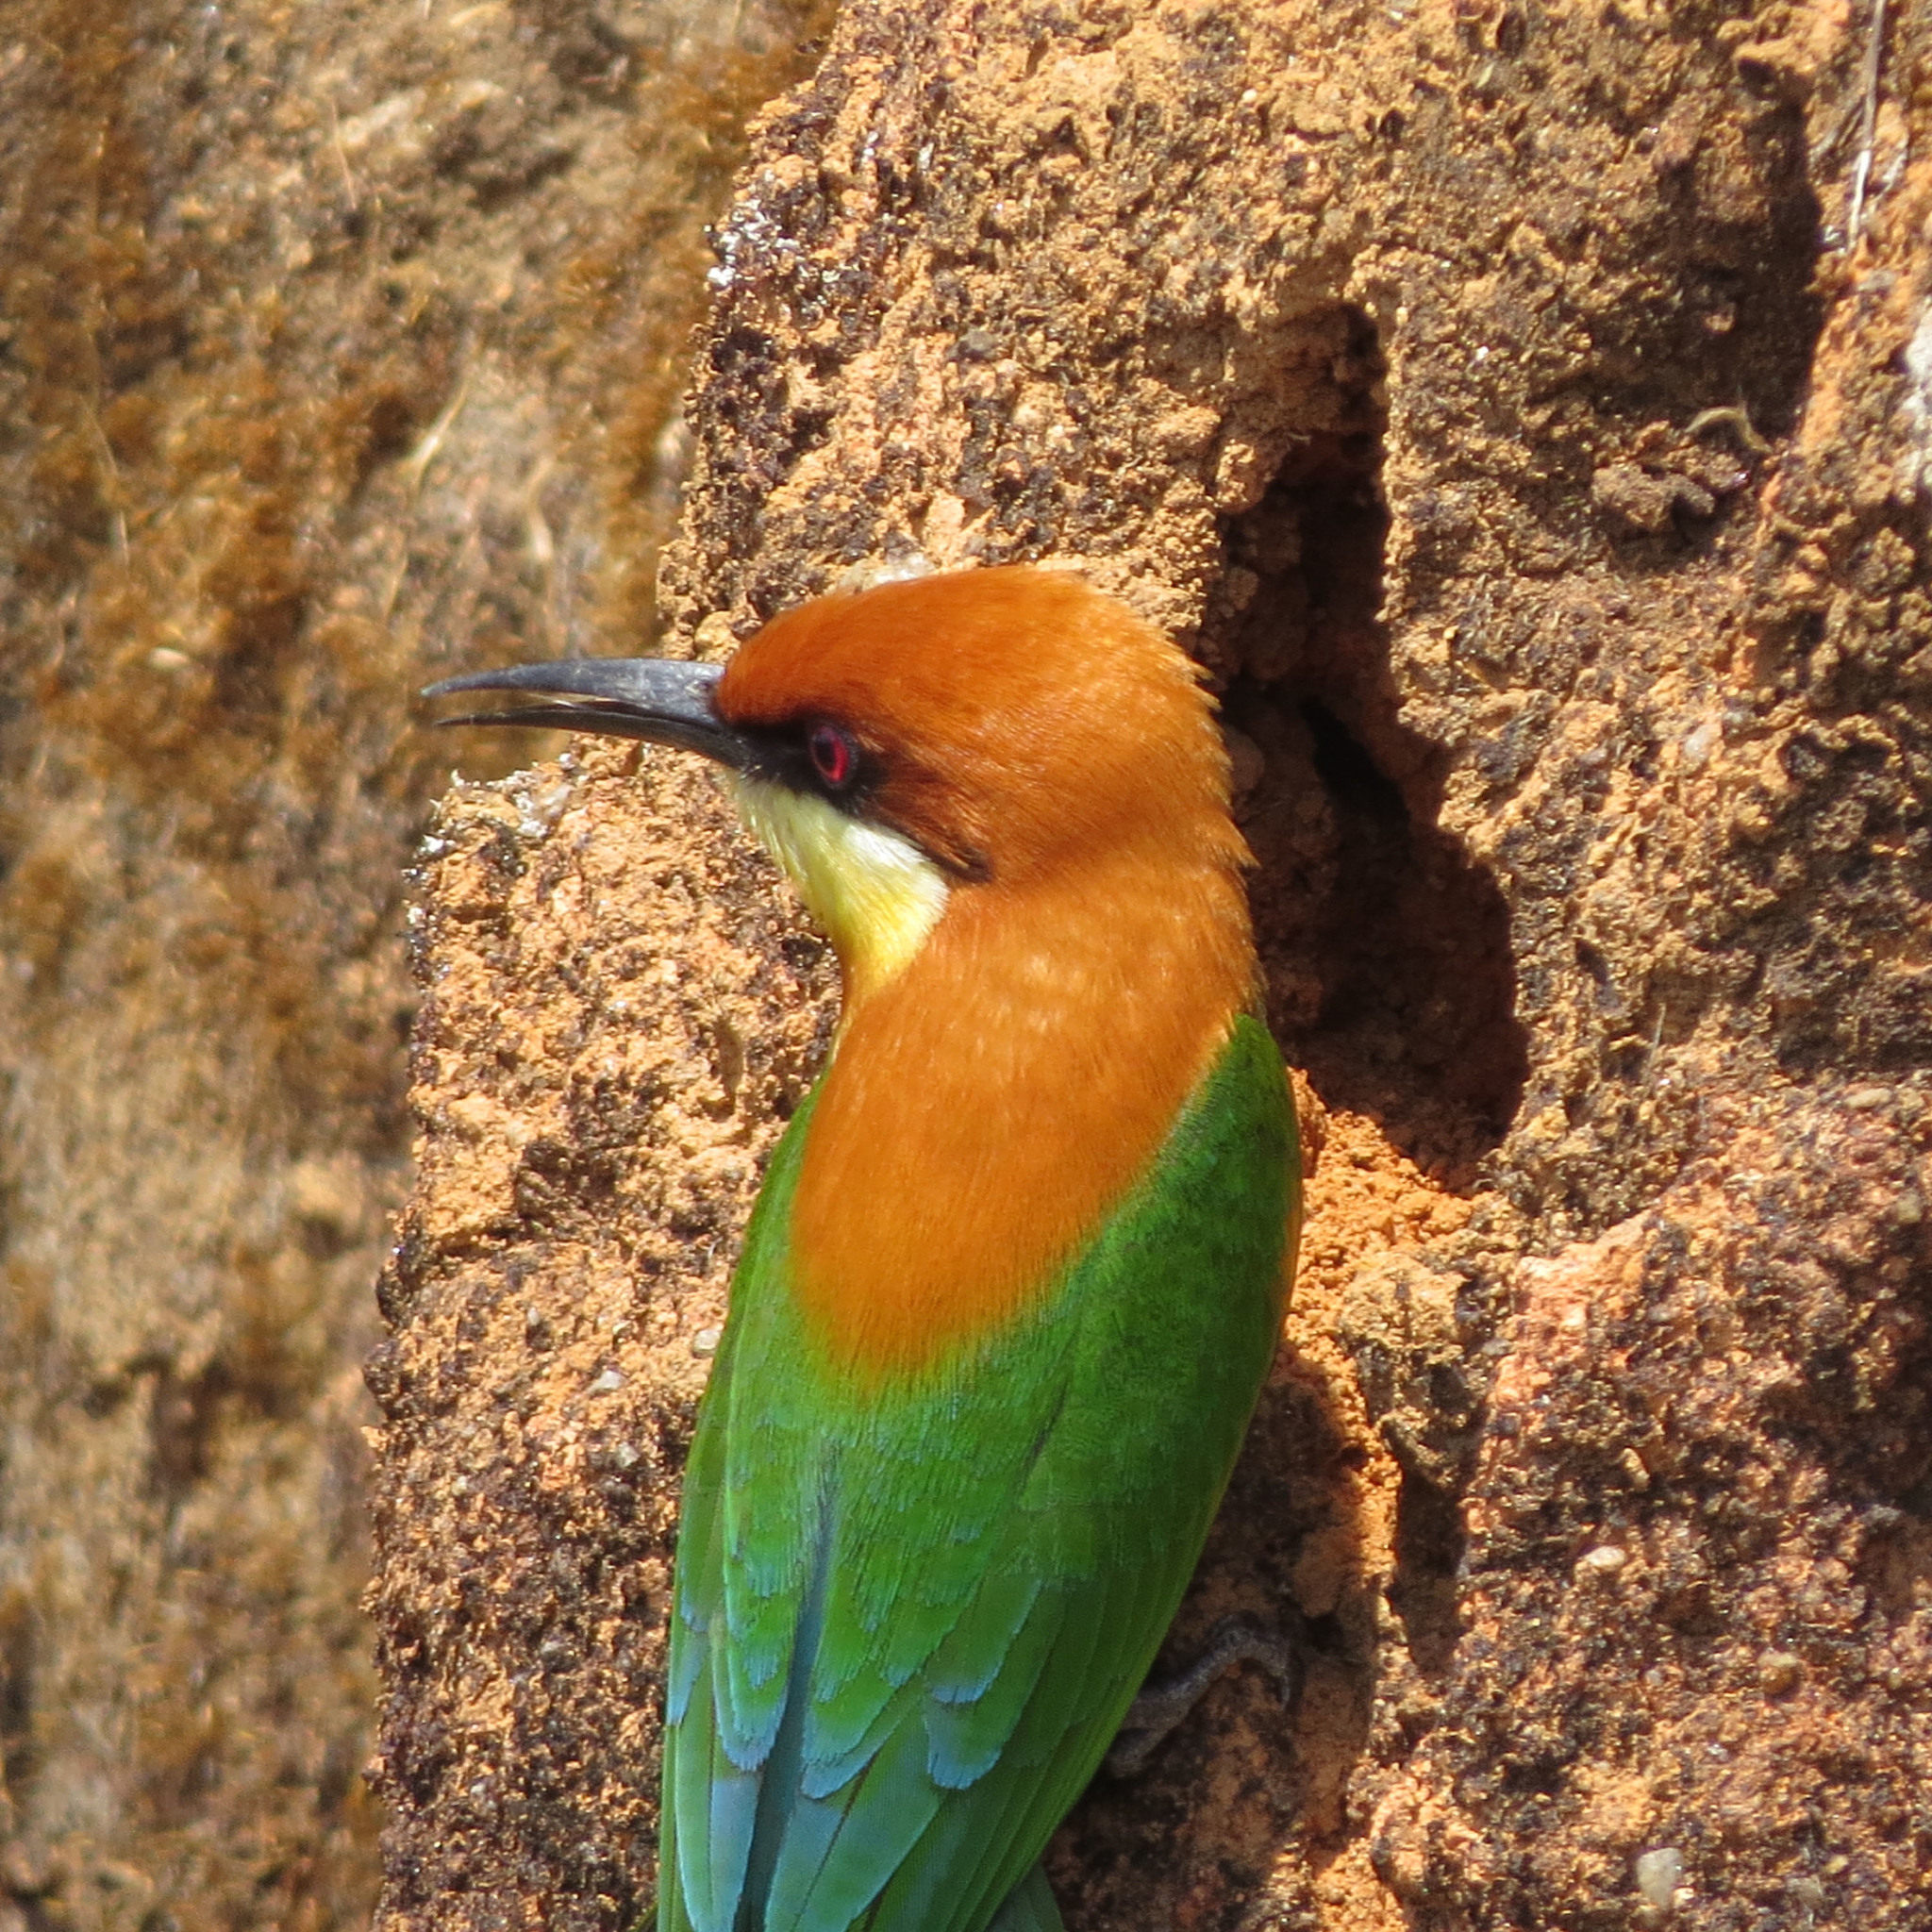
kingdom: Animalia
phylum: Chordata
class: Aves
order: Coraciiformes
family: Meropidae
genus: Merops
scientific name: Merops leschenaulti
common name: Chestnut-headed bee-eater
